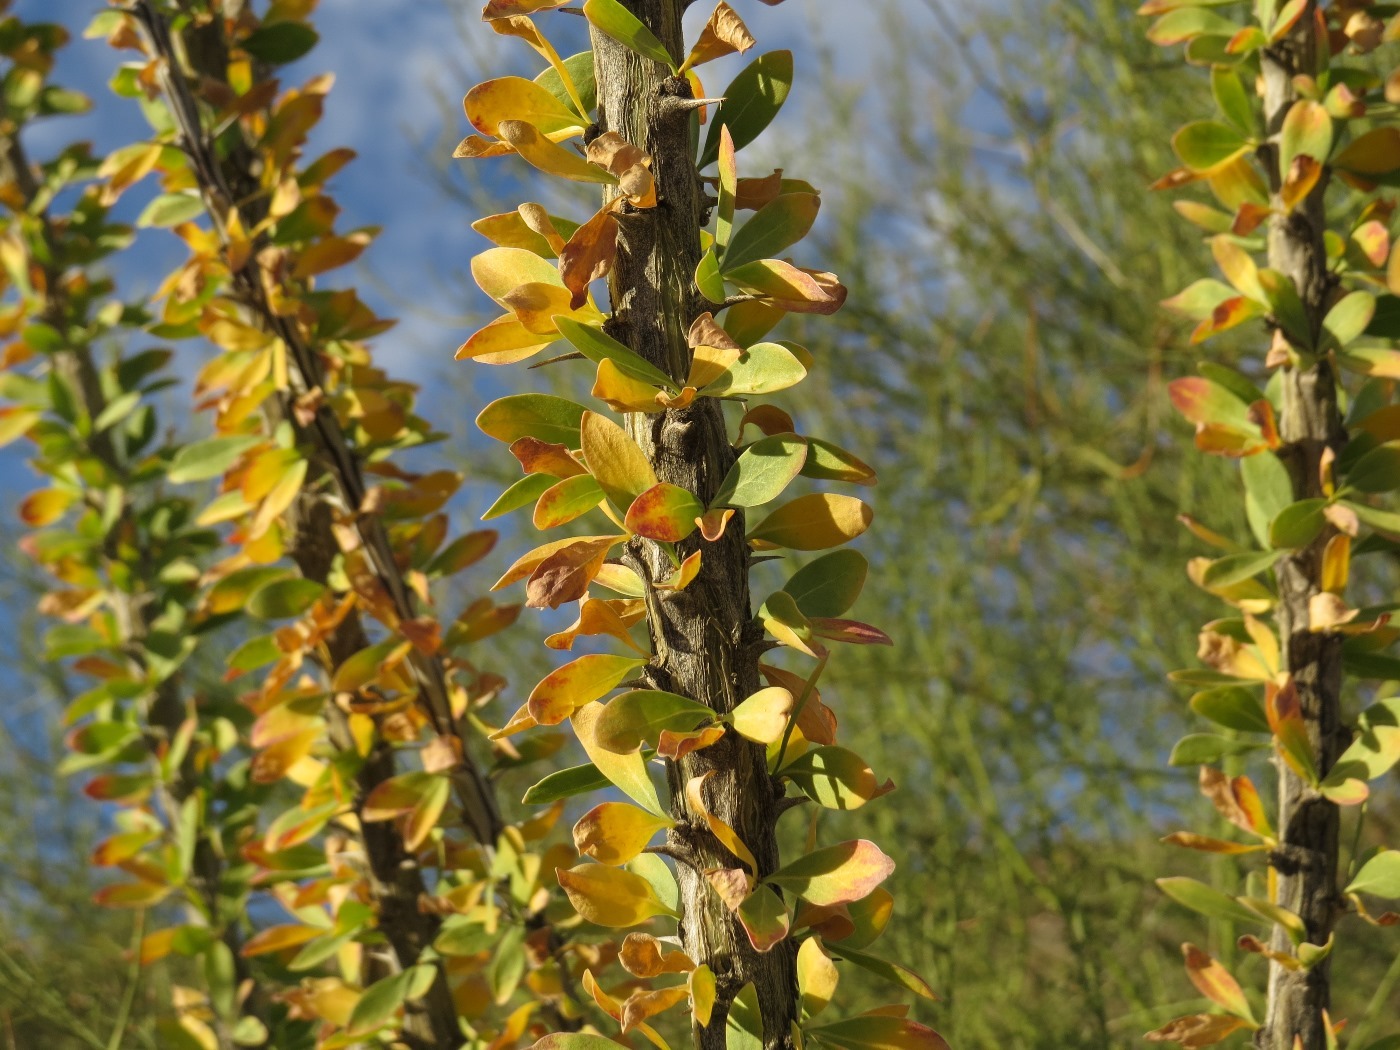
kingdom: Plantae
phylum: Tracheophyta
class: Magnoliopsida
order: Ericales
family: Fouquieriaceae
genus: Fouquieria
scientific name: Fouquieria splendens
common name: Vine-cactus
